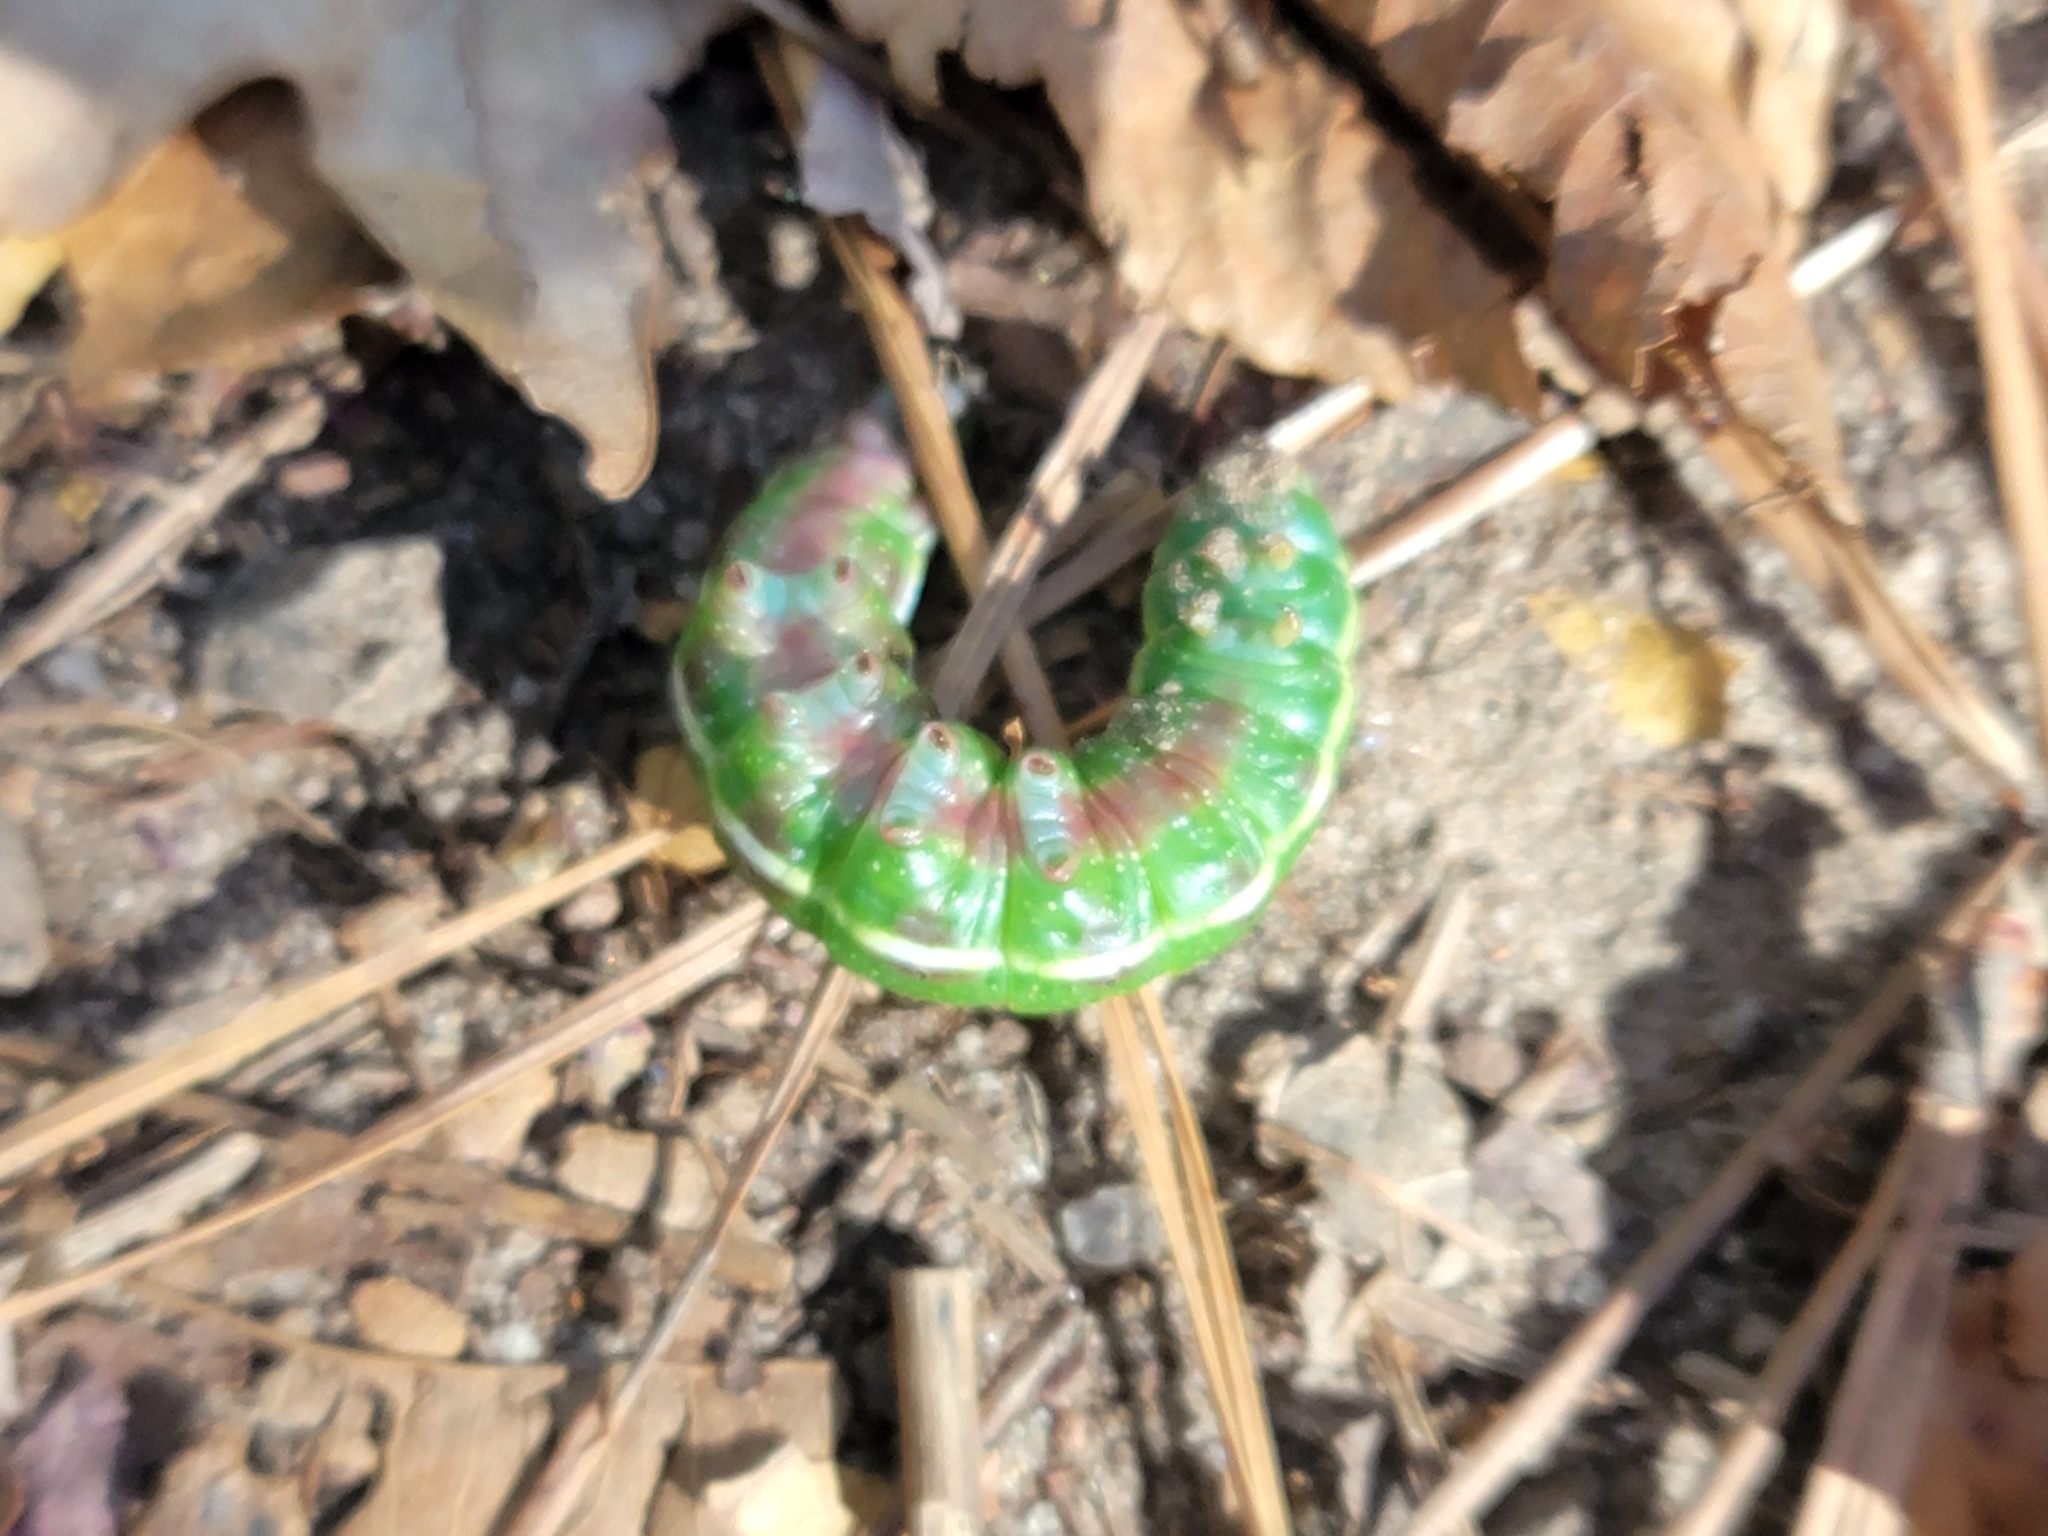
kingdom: Animalia
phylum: Arthropoda
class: Insecta
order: Lepidoptera
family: Sphingidae
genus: Lapara
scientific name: Lapara coniferarum
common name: Southern pine sphinx
